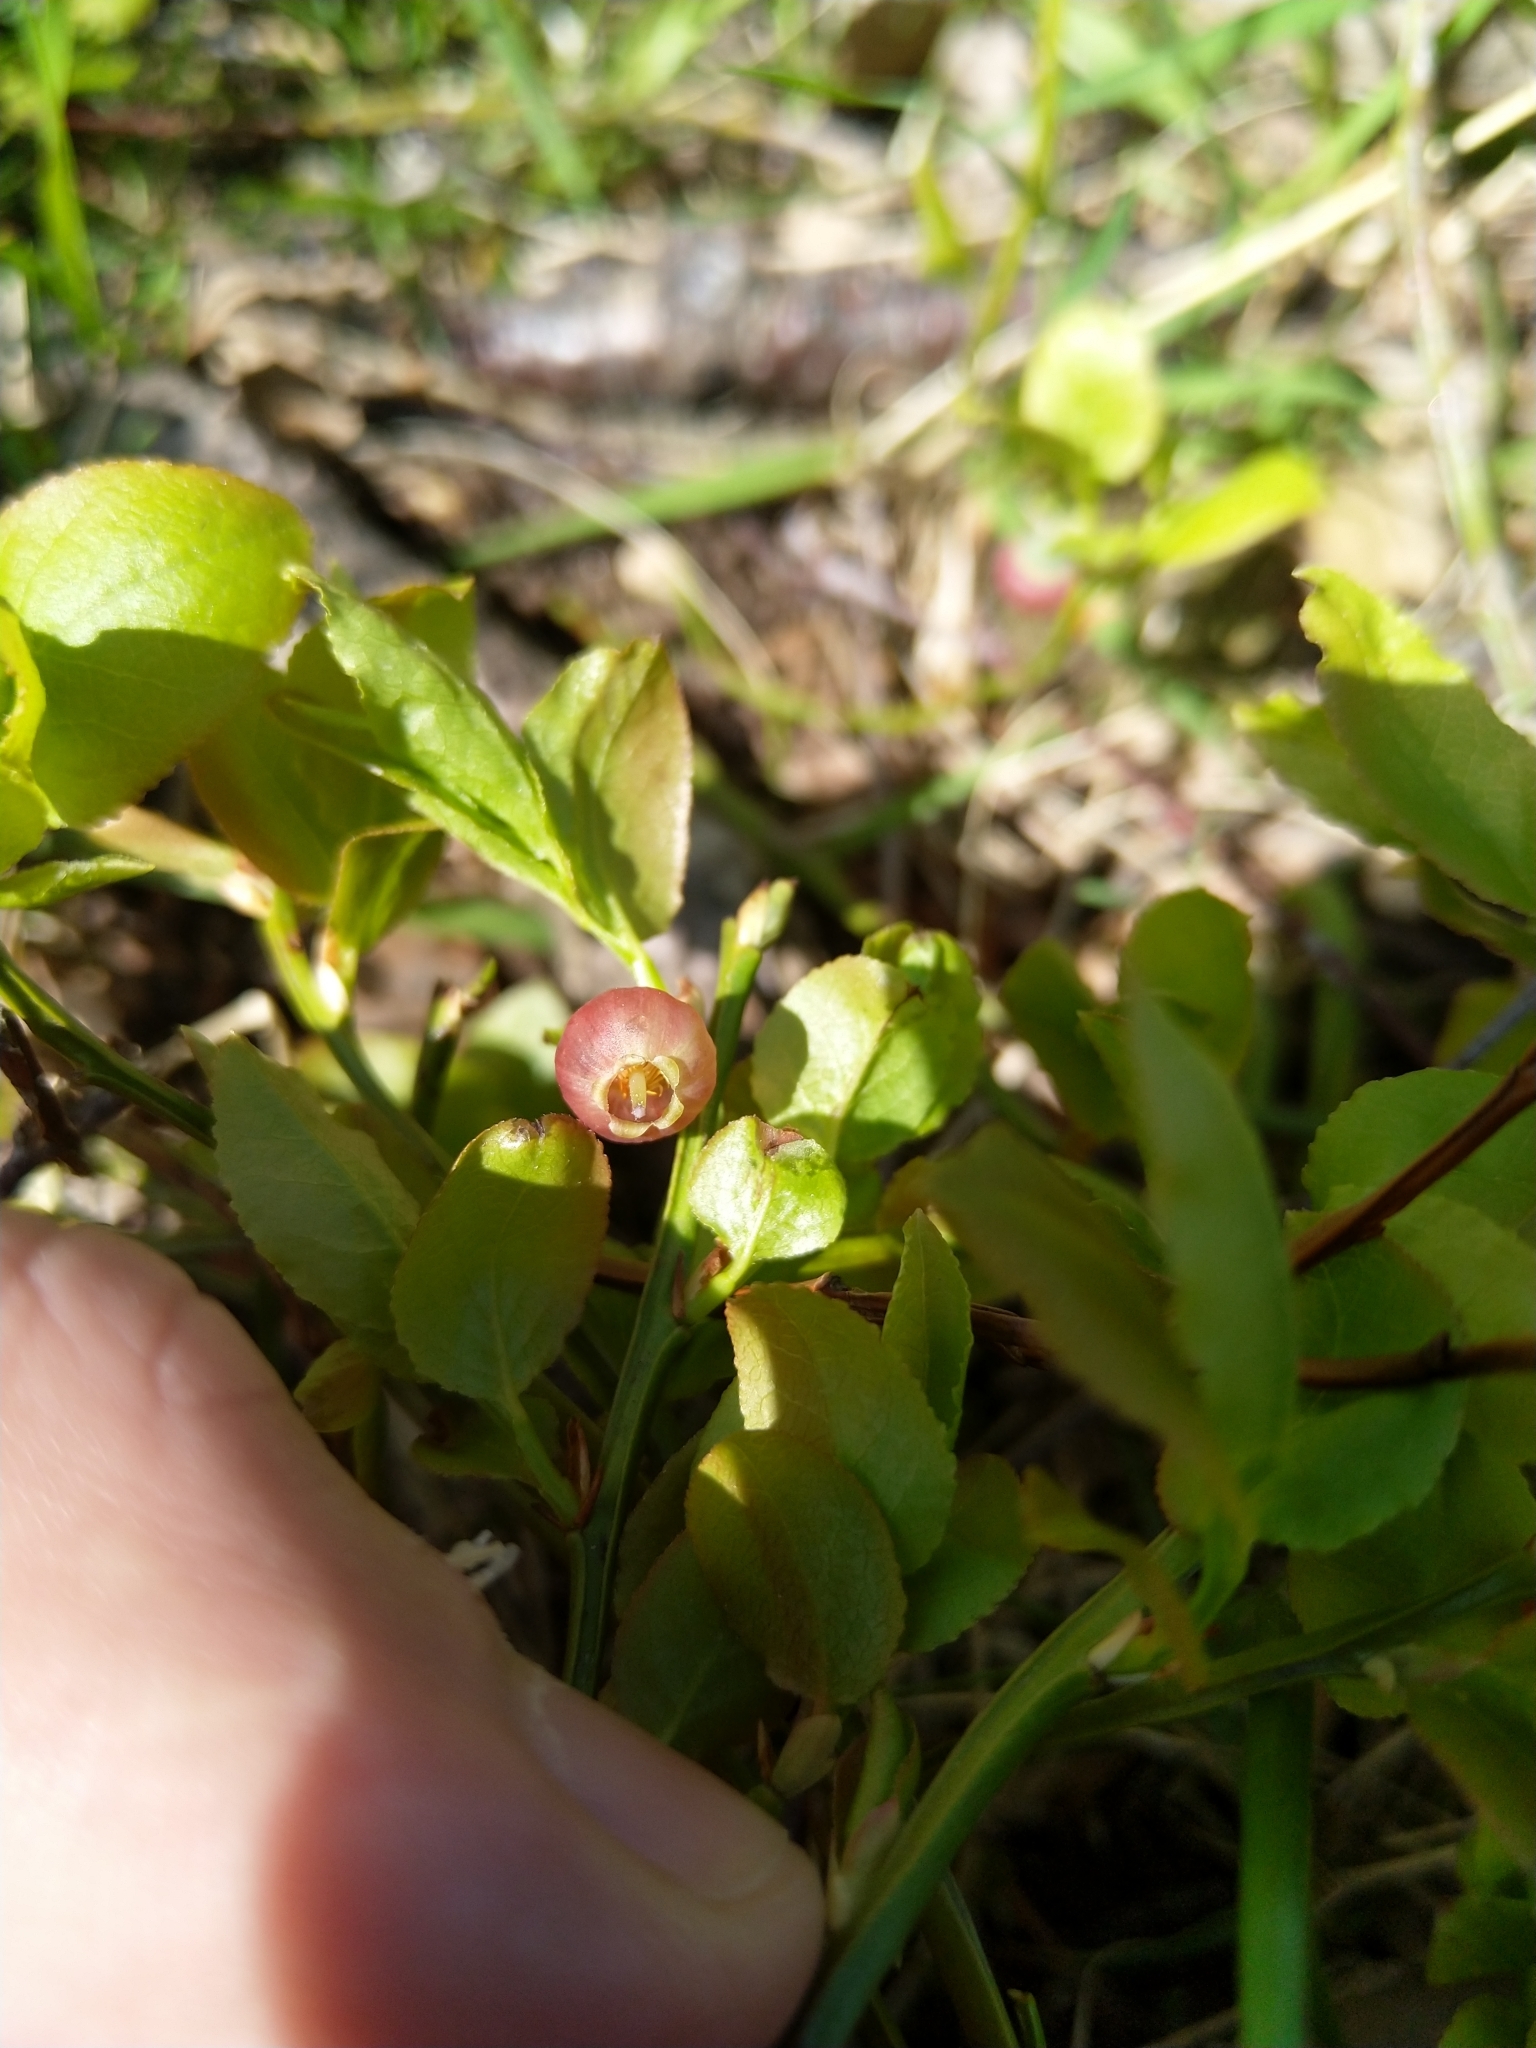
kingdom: Plantae
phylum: Tracheophyta
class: Magnoliopsida
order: Ericales
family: Ericaceae
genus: Vaccinium
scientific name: Vaccinium myrtillus
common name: Bilberry
